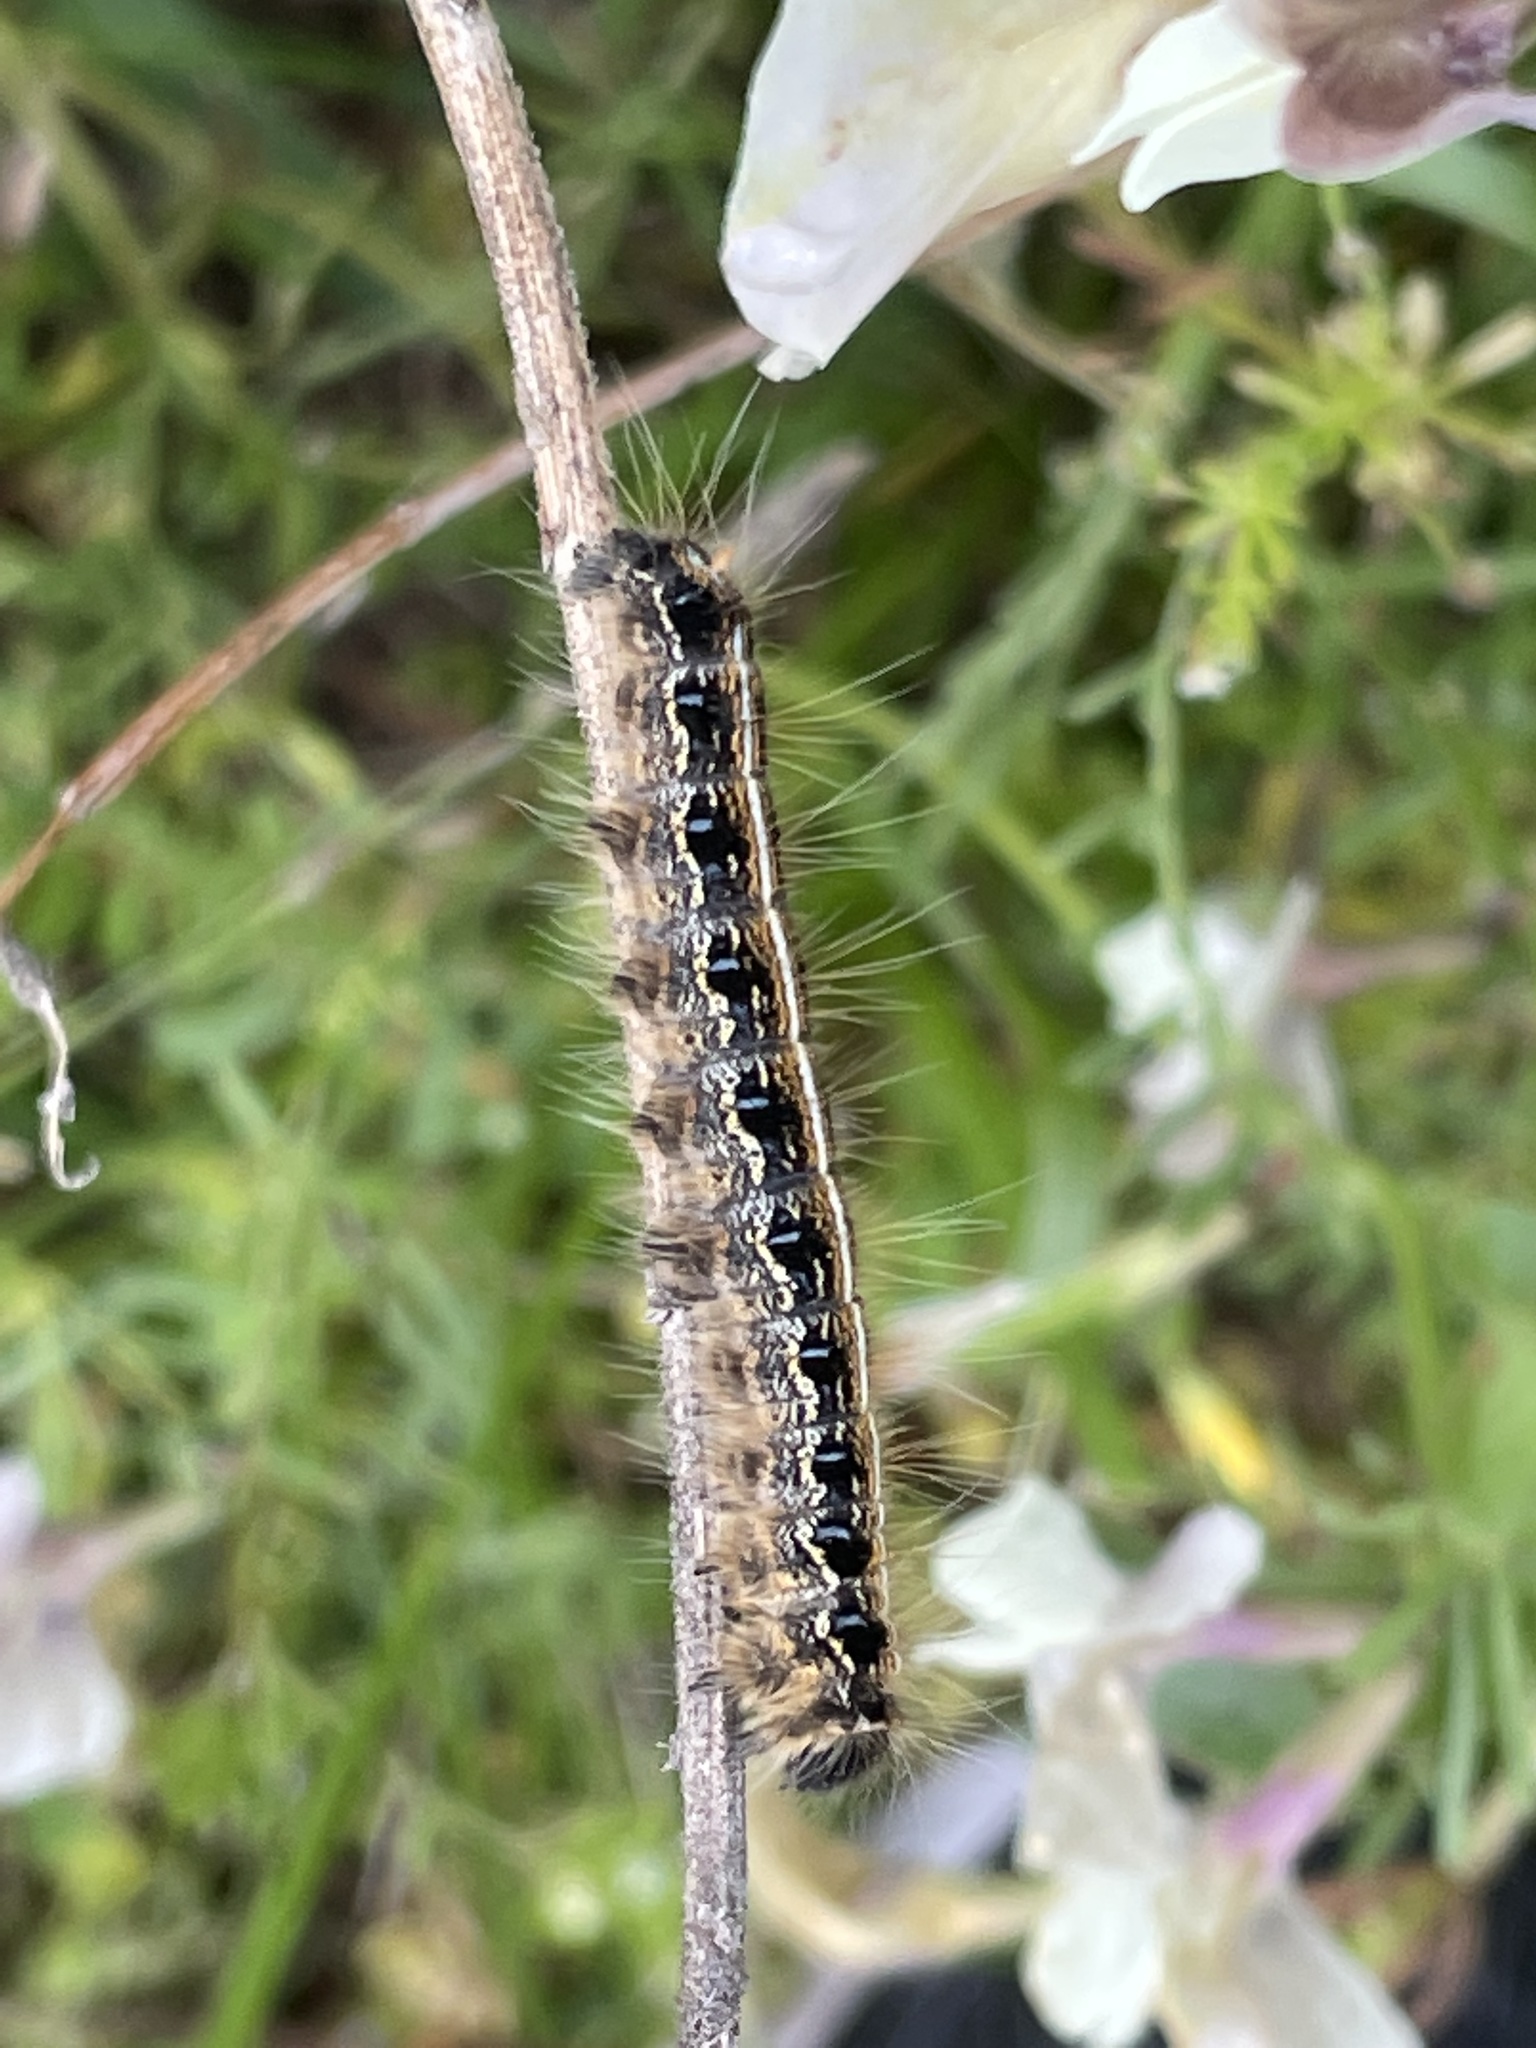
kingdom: Animalia
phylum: Arthropoda
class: Insecta
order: Lepidoptera
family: Lasiocampidae
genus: Malacosoma
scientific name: Malacosoma americana
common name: Eastern tent caterpillar moth
